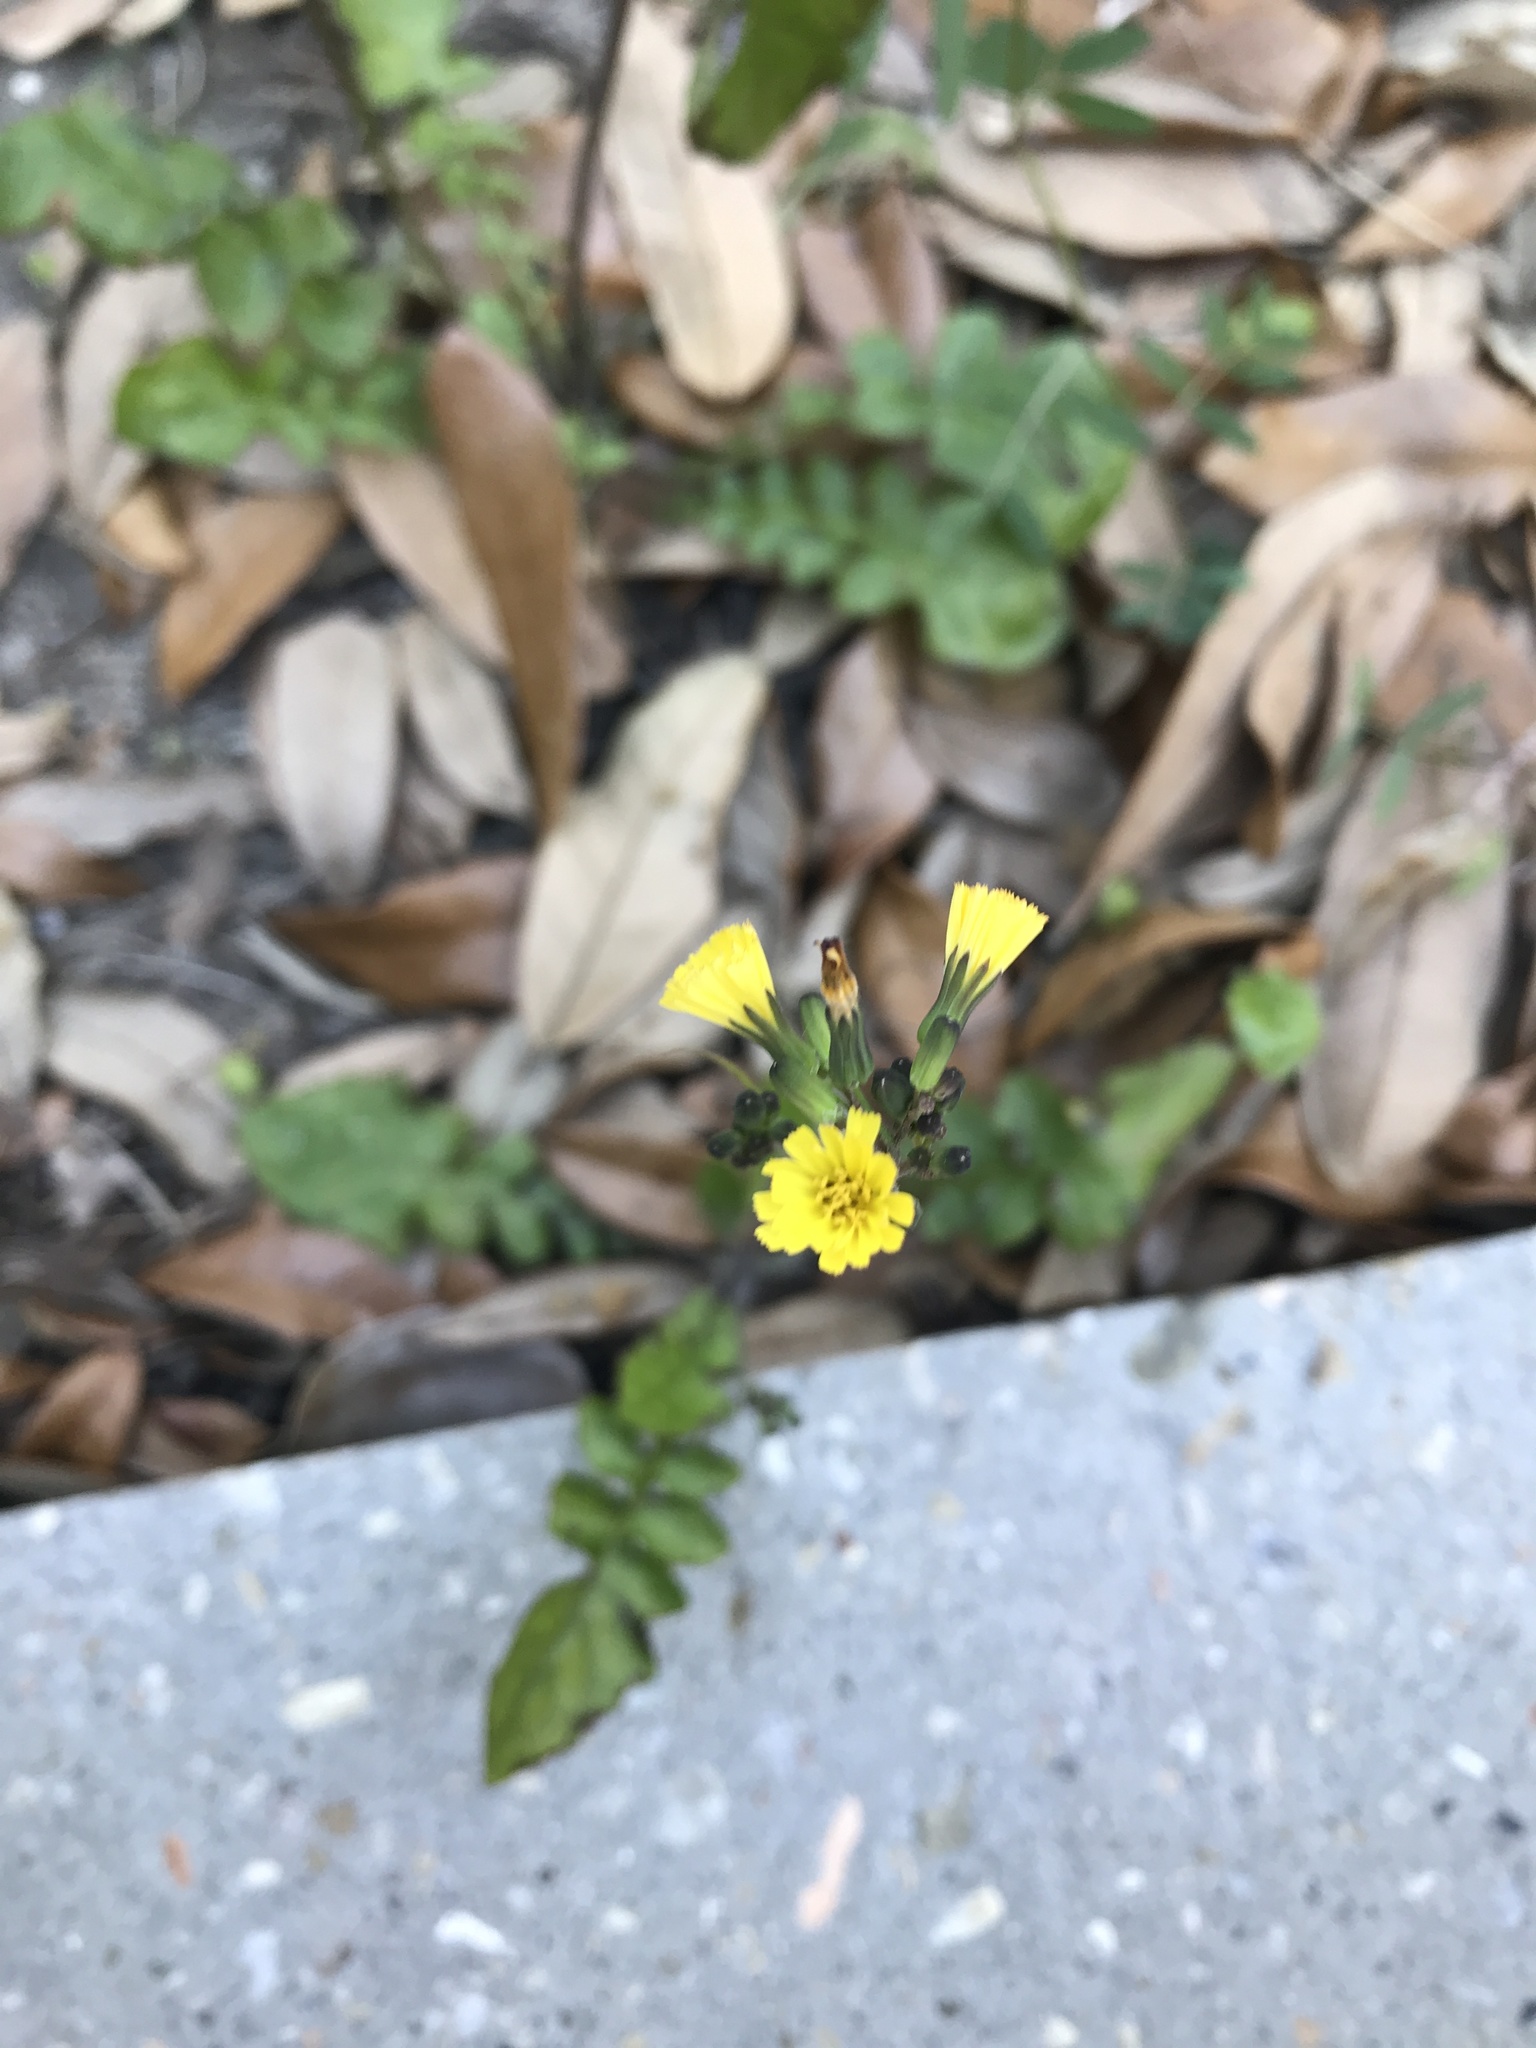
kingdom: Plantae
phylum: Tracheophyta
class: Magnoliopsida
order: Asterales
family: Asteraceae
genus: Youngia
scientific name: Youngia japonica
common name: Oriental false hawksbeard
